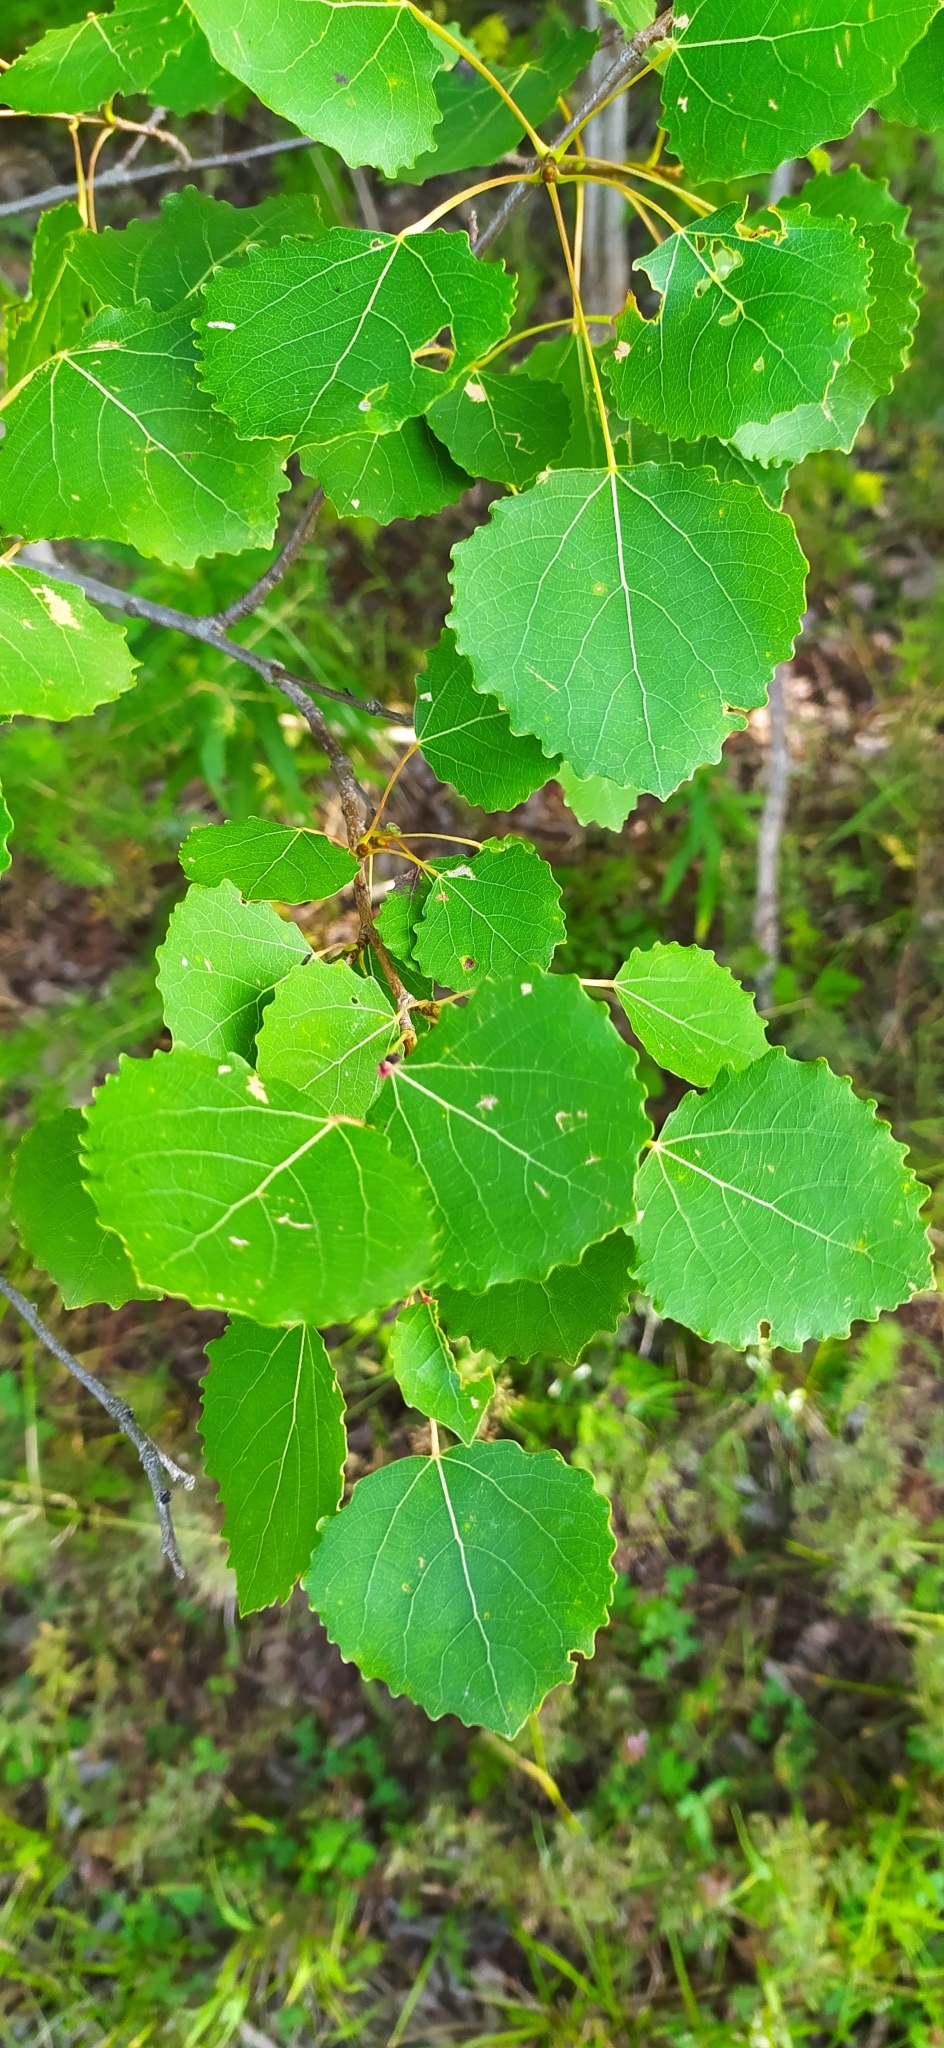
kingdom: Plantae
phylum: Tracheophyta
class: Magnoliopsida
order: Malpighiales
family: Salicaceae
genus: Populus
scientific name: Populus tremula
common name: European aspen
